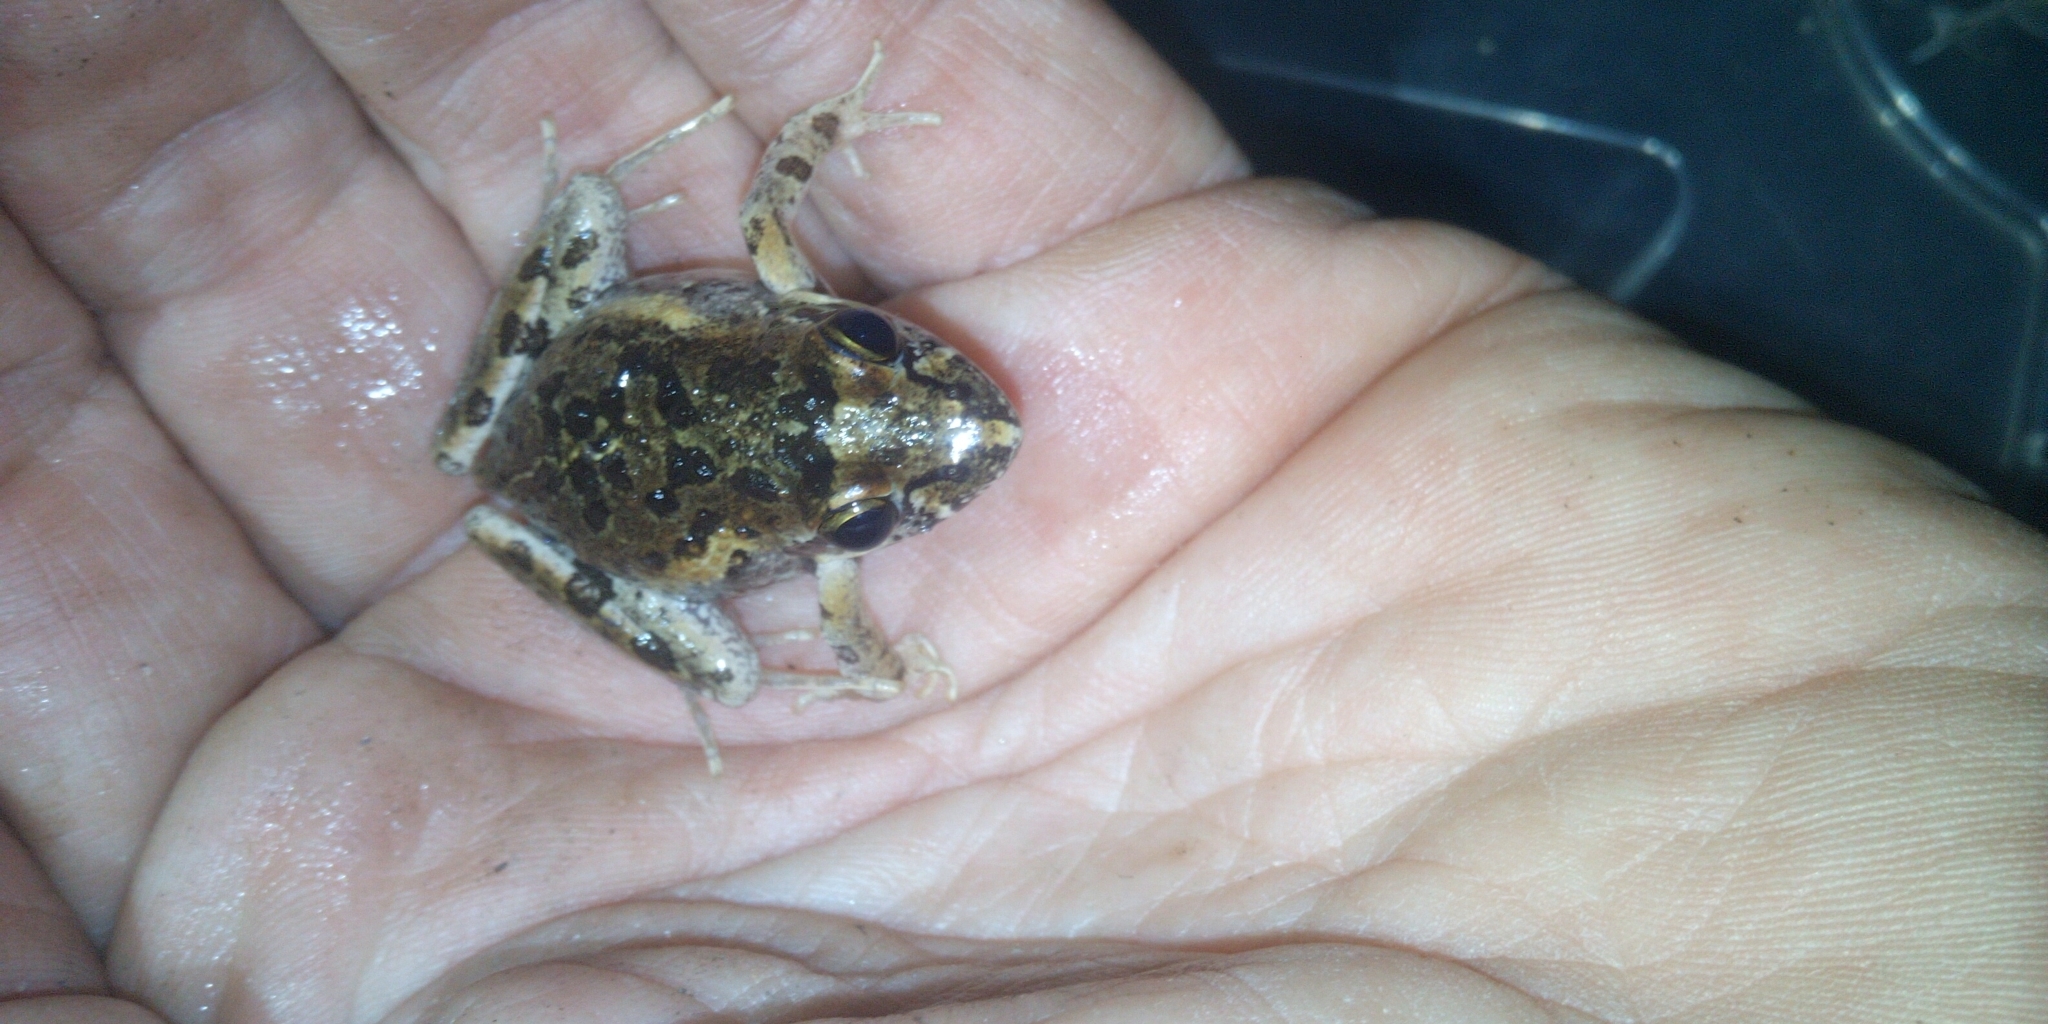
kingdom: Animalia
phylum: Chordata
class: Amphibia
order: Anura
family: Pyxicephalidae
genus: Strongylopus
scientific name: Strongylopus grayii
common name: Gray's stream frog
